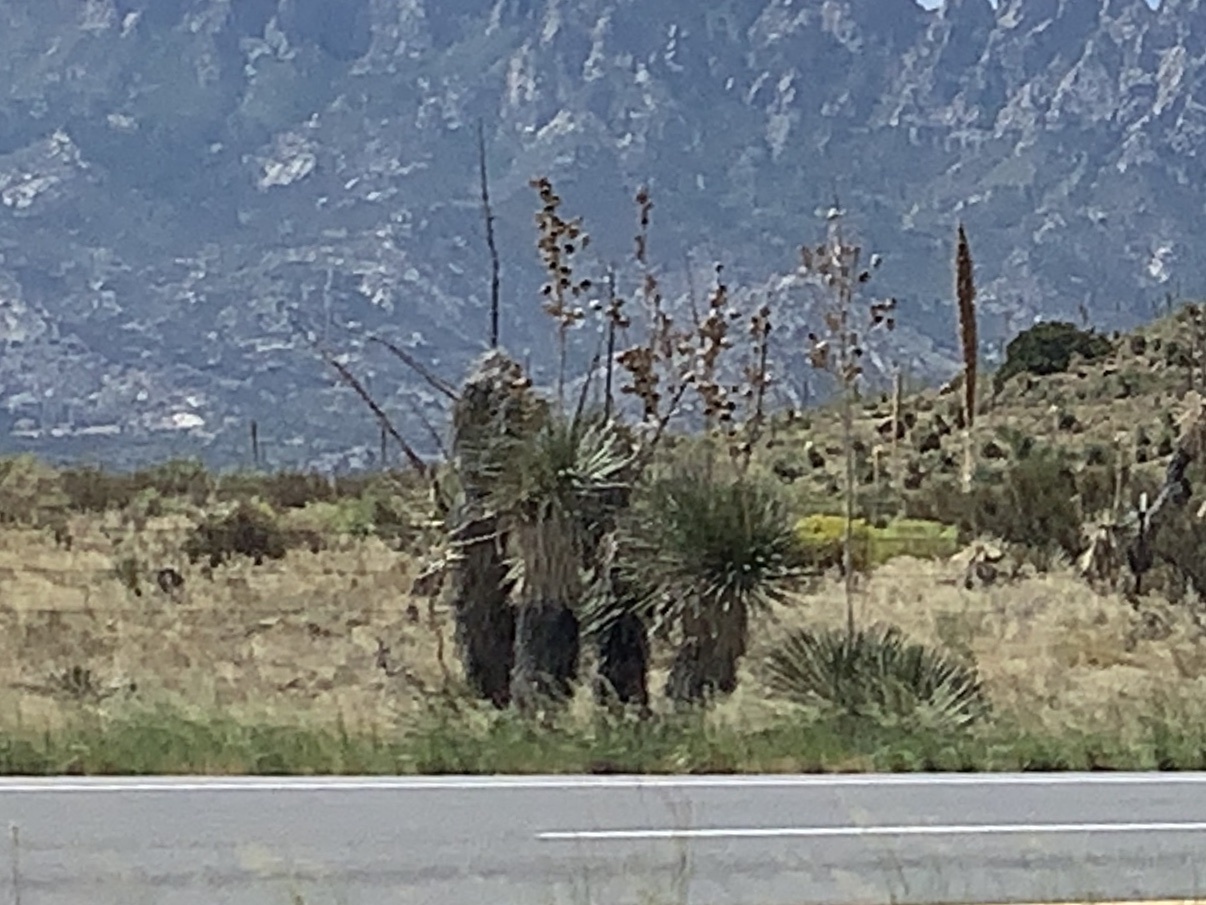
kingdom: Plantae
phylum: Tracheophyta
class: Liliopsida
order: Asparagales
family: Asparagaceae
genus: Yucca
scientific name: Yucca elata
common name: Palmella
